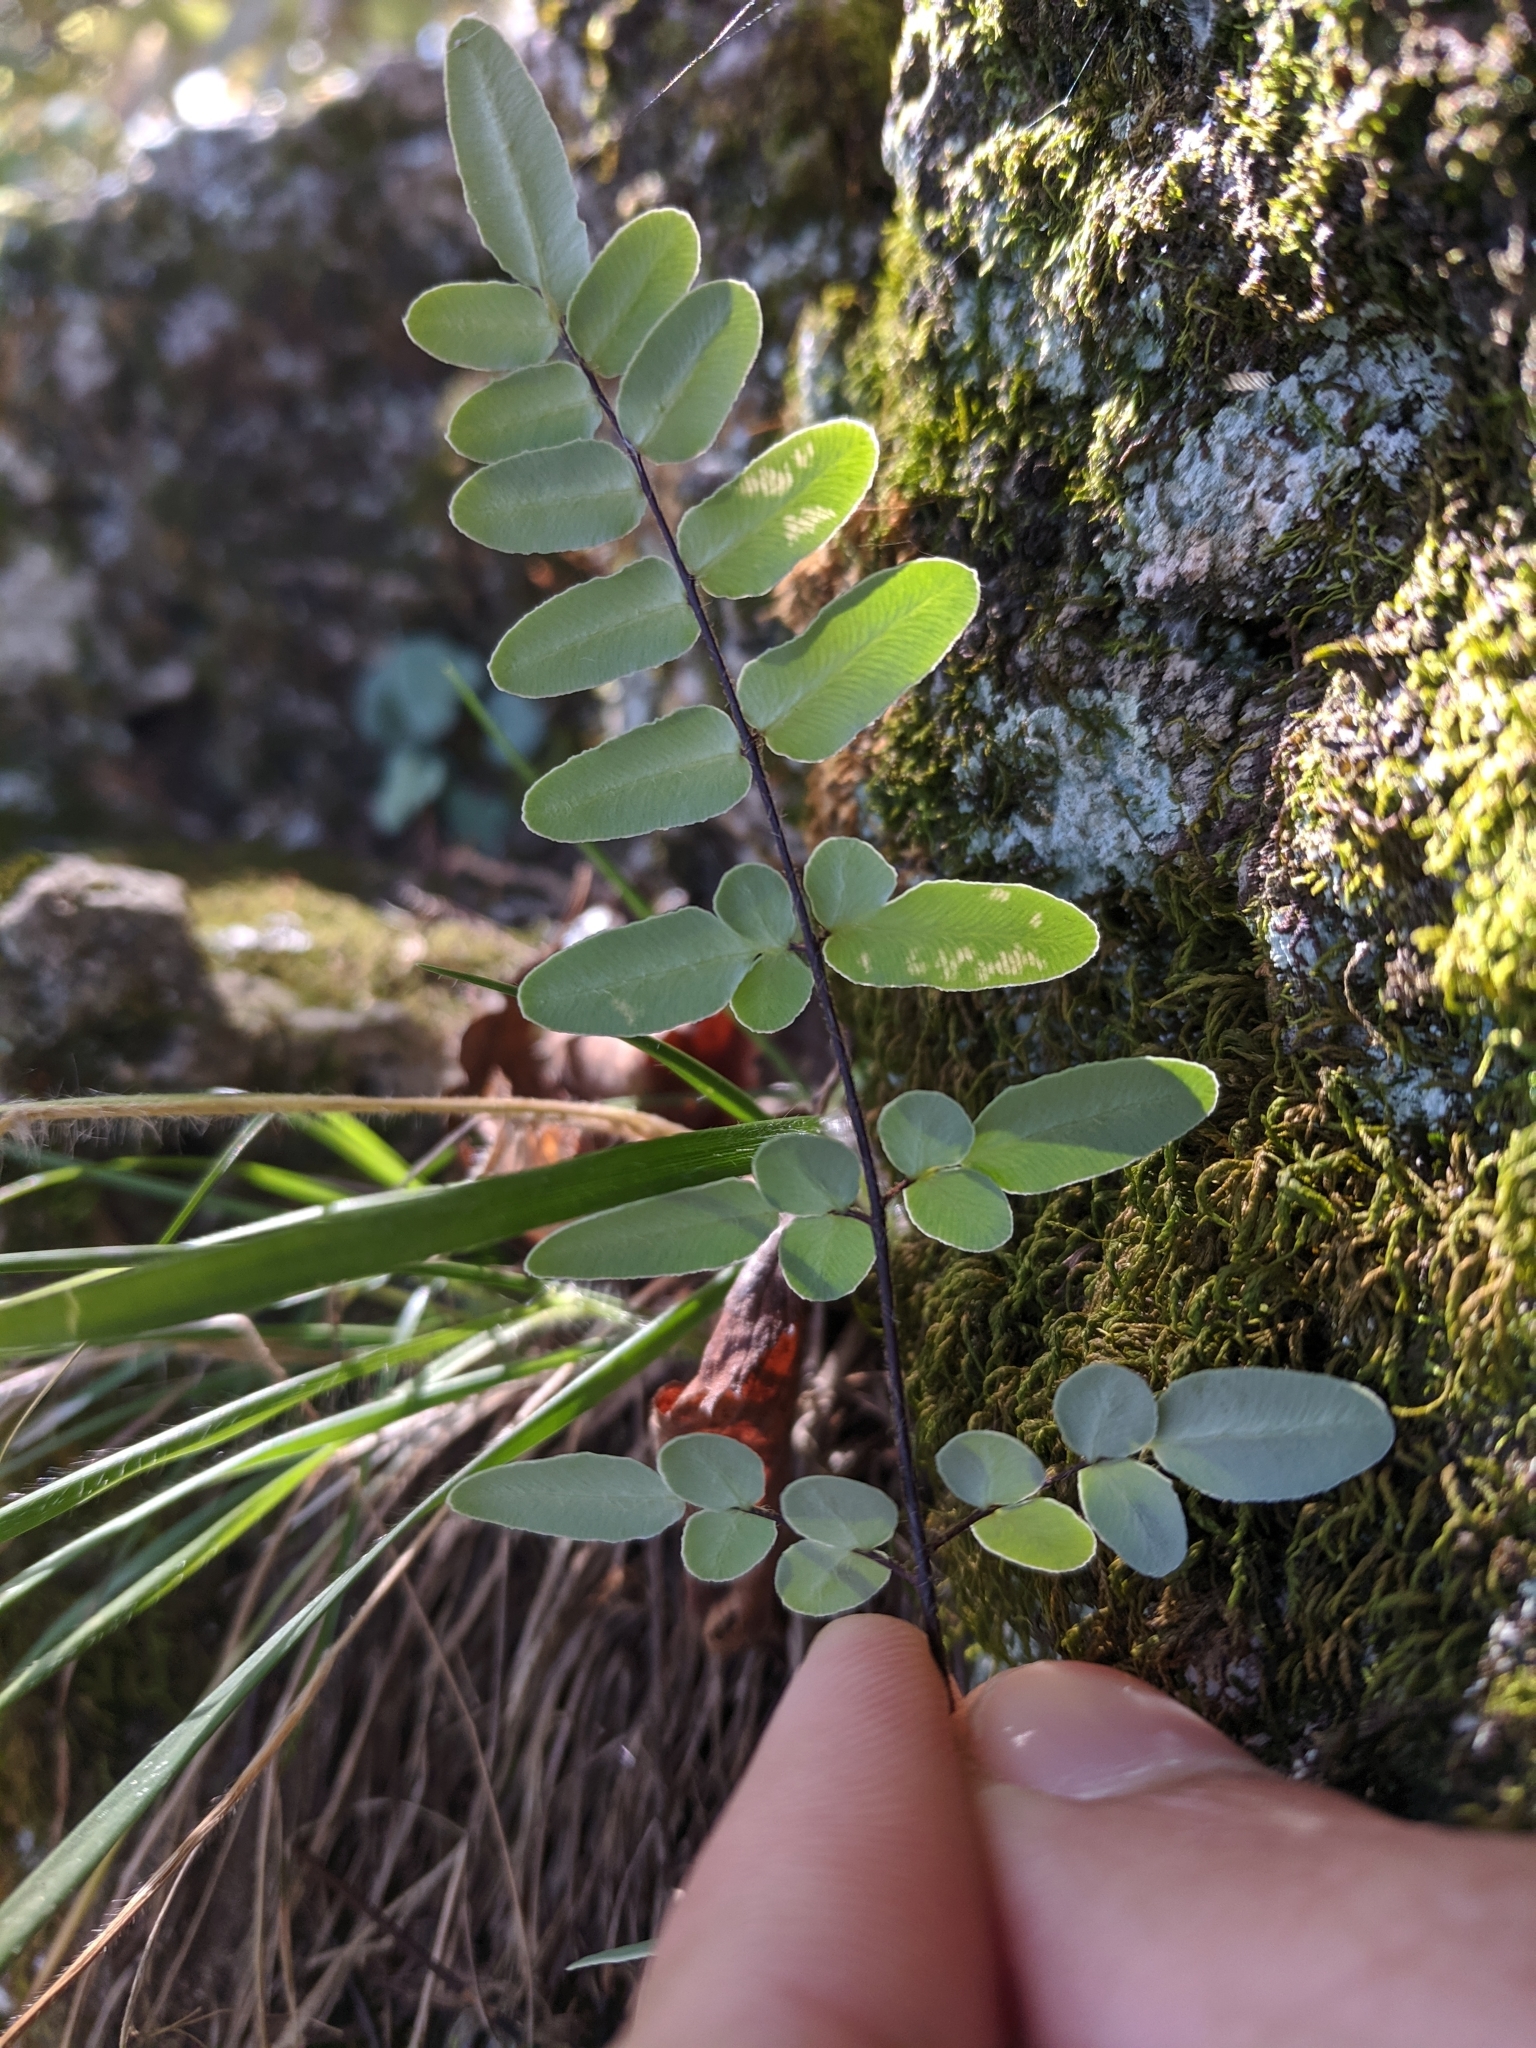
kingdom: Plantae
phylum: Tracheophyta
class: Polypodiopsida
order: Polypodiales
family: Pteridaceae
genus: Pellaea
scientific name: Pellaea atropurpurea
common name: Hairy cliffbrake
